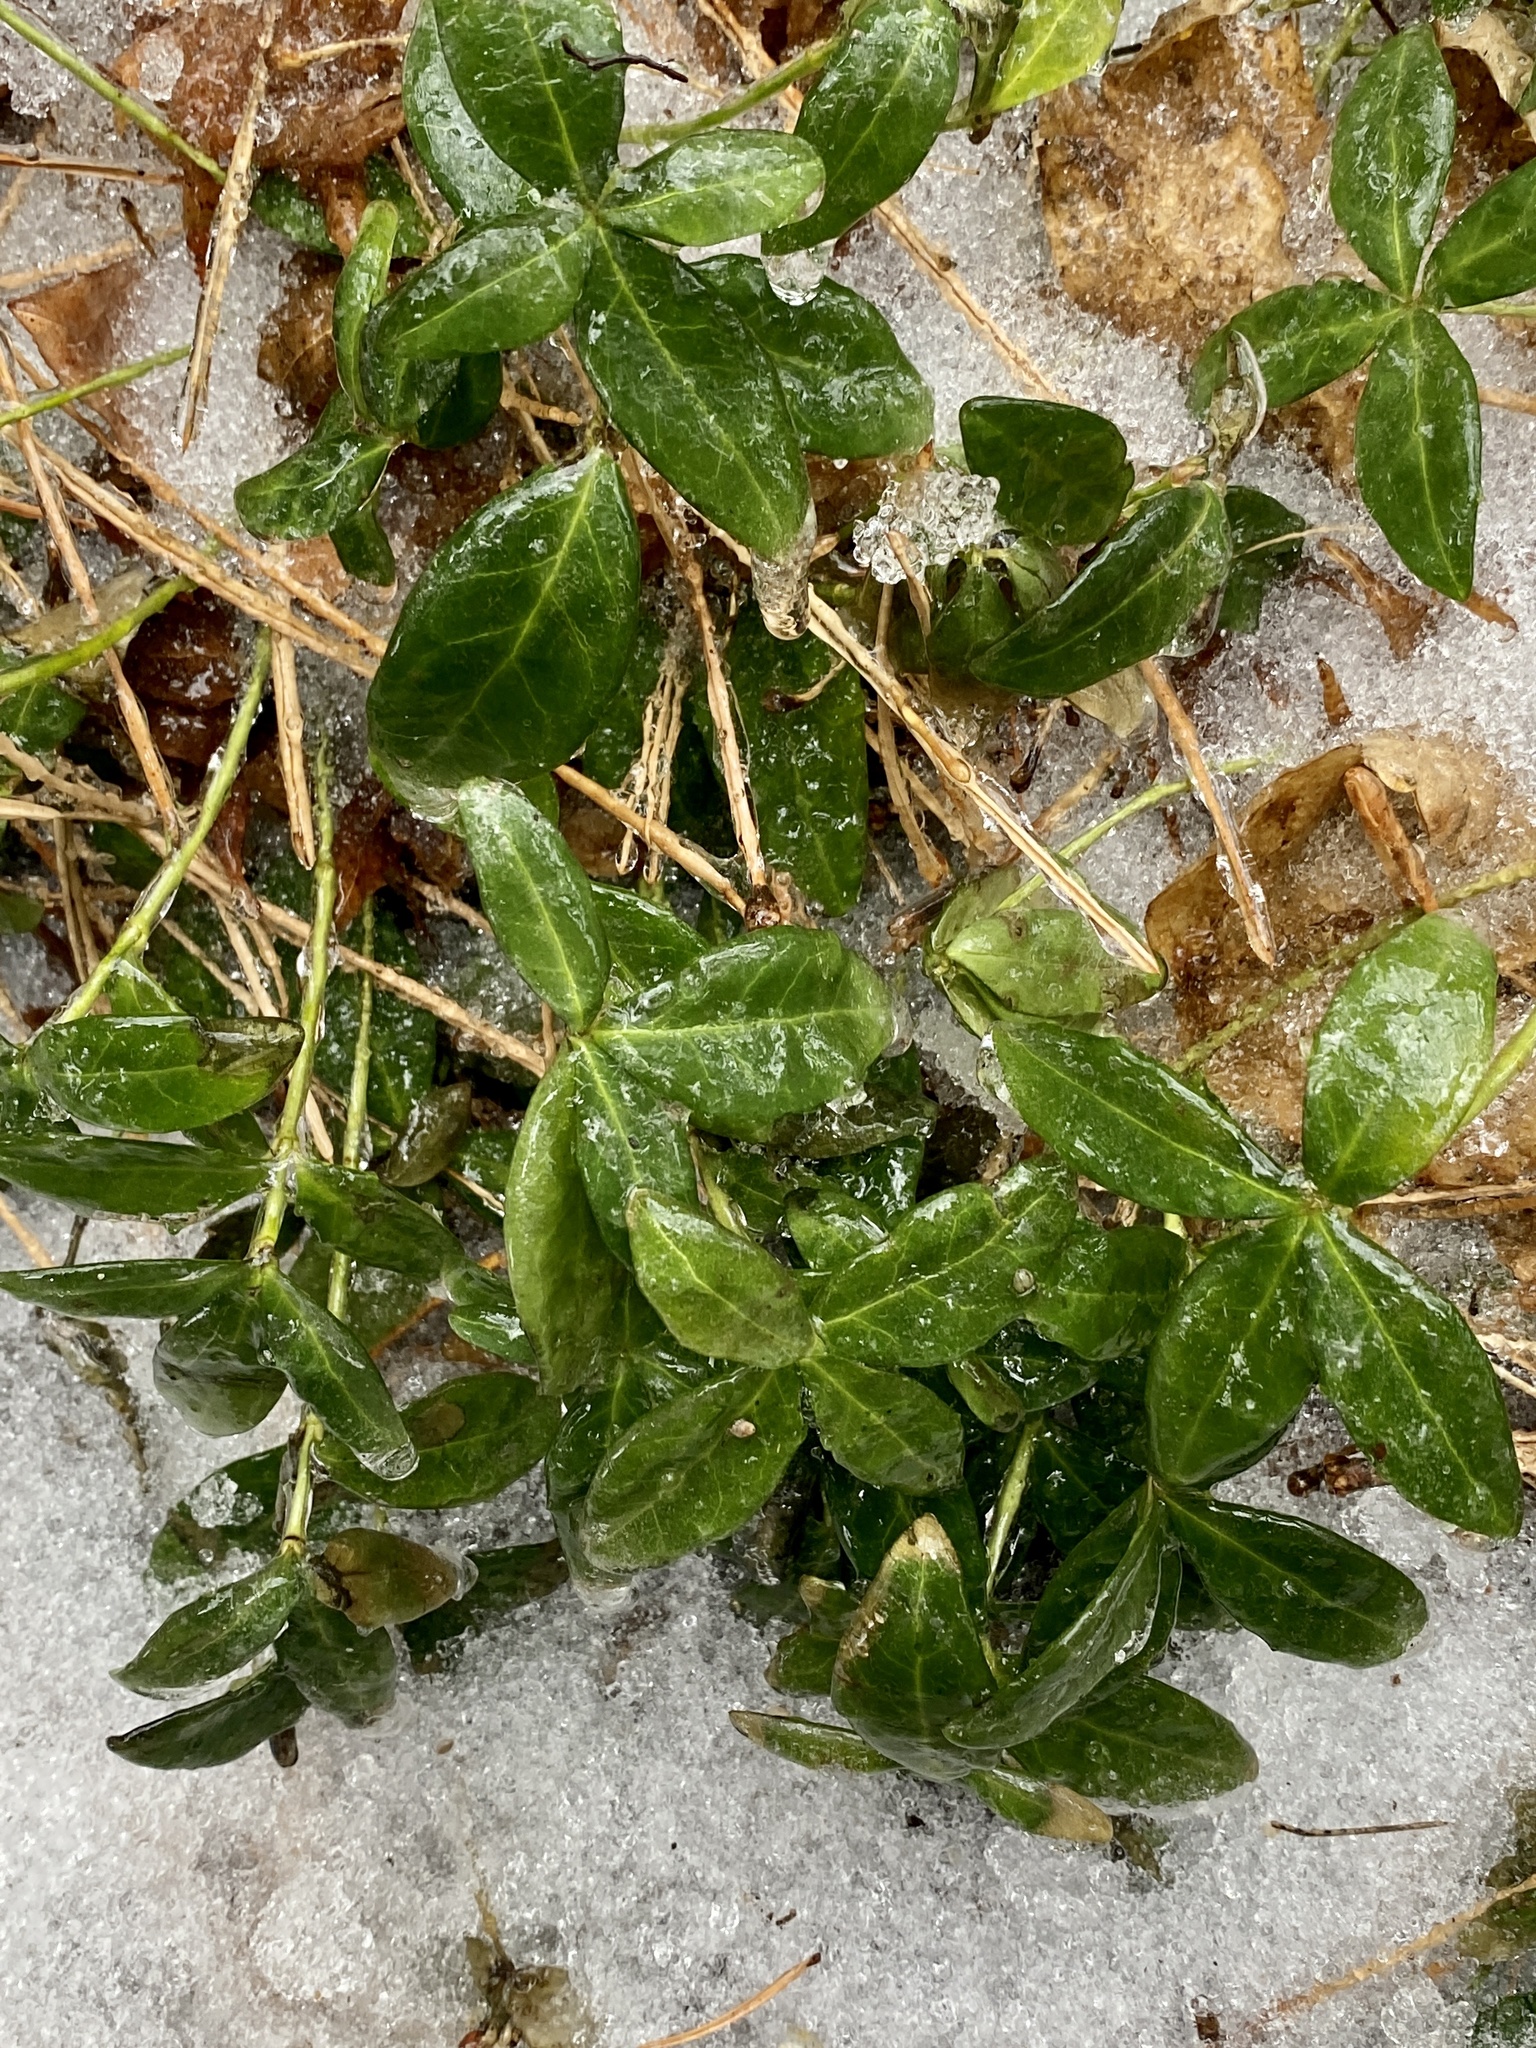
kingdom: Plantae
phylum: Tracheophyta
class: Magnoliopsida
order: Gentianales
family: Apocynaceae
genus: Vinca
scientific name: Vinca minor
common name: Lesser periwinkle
